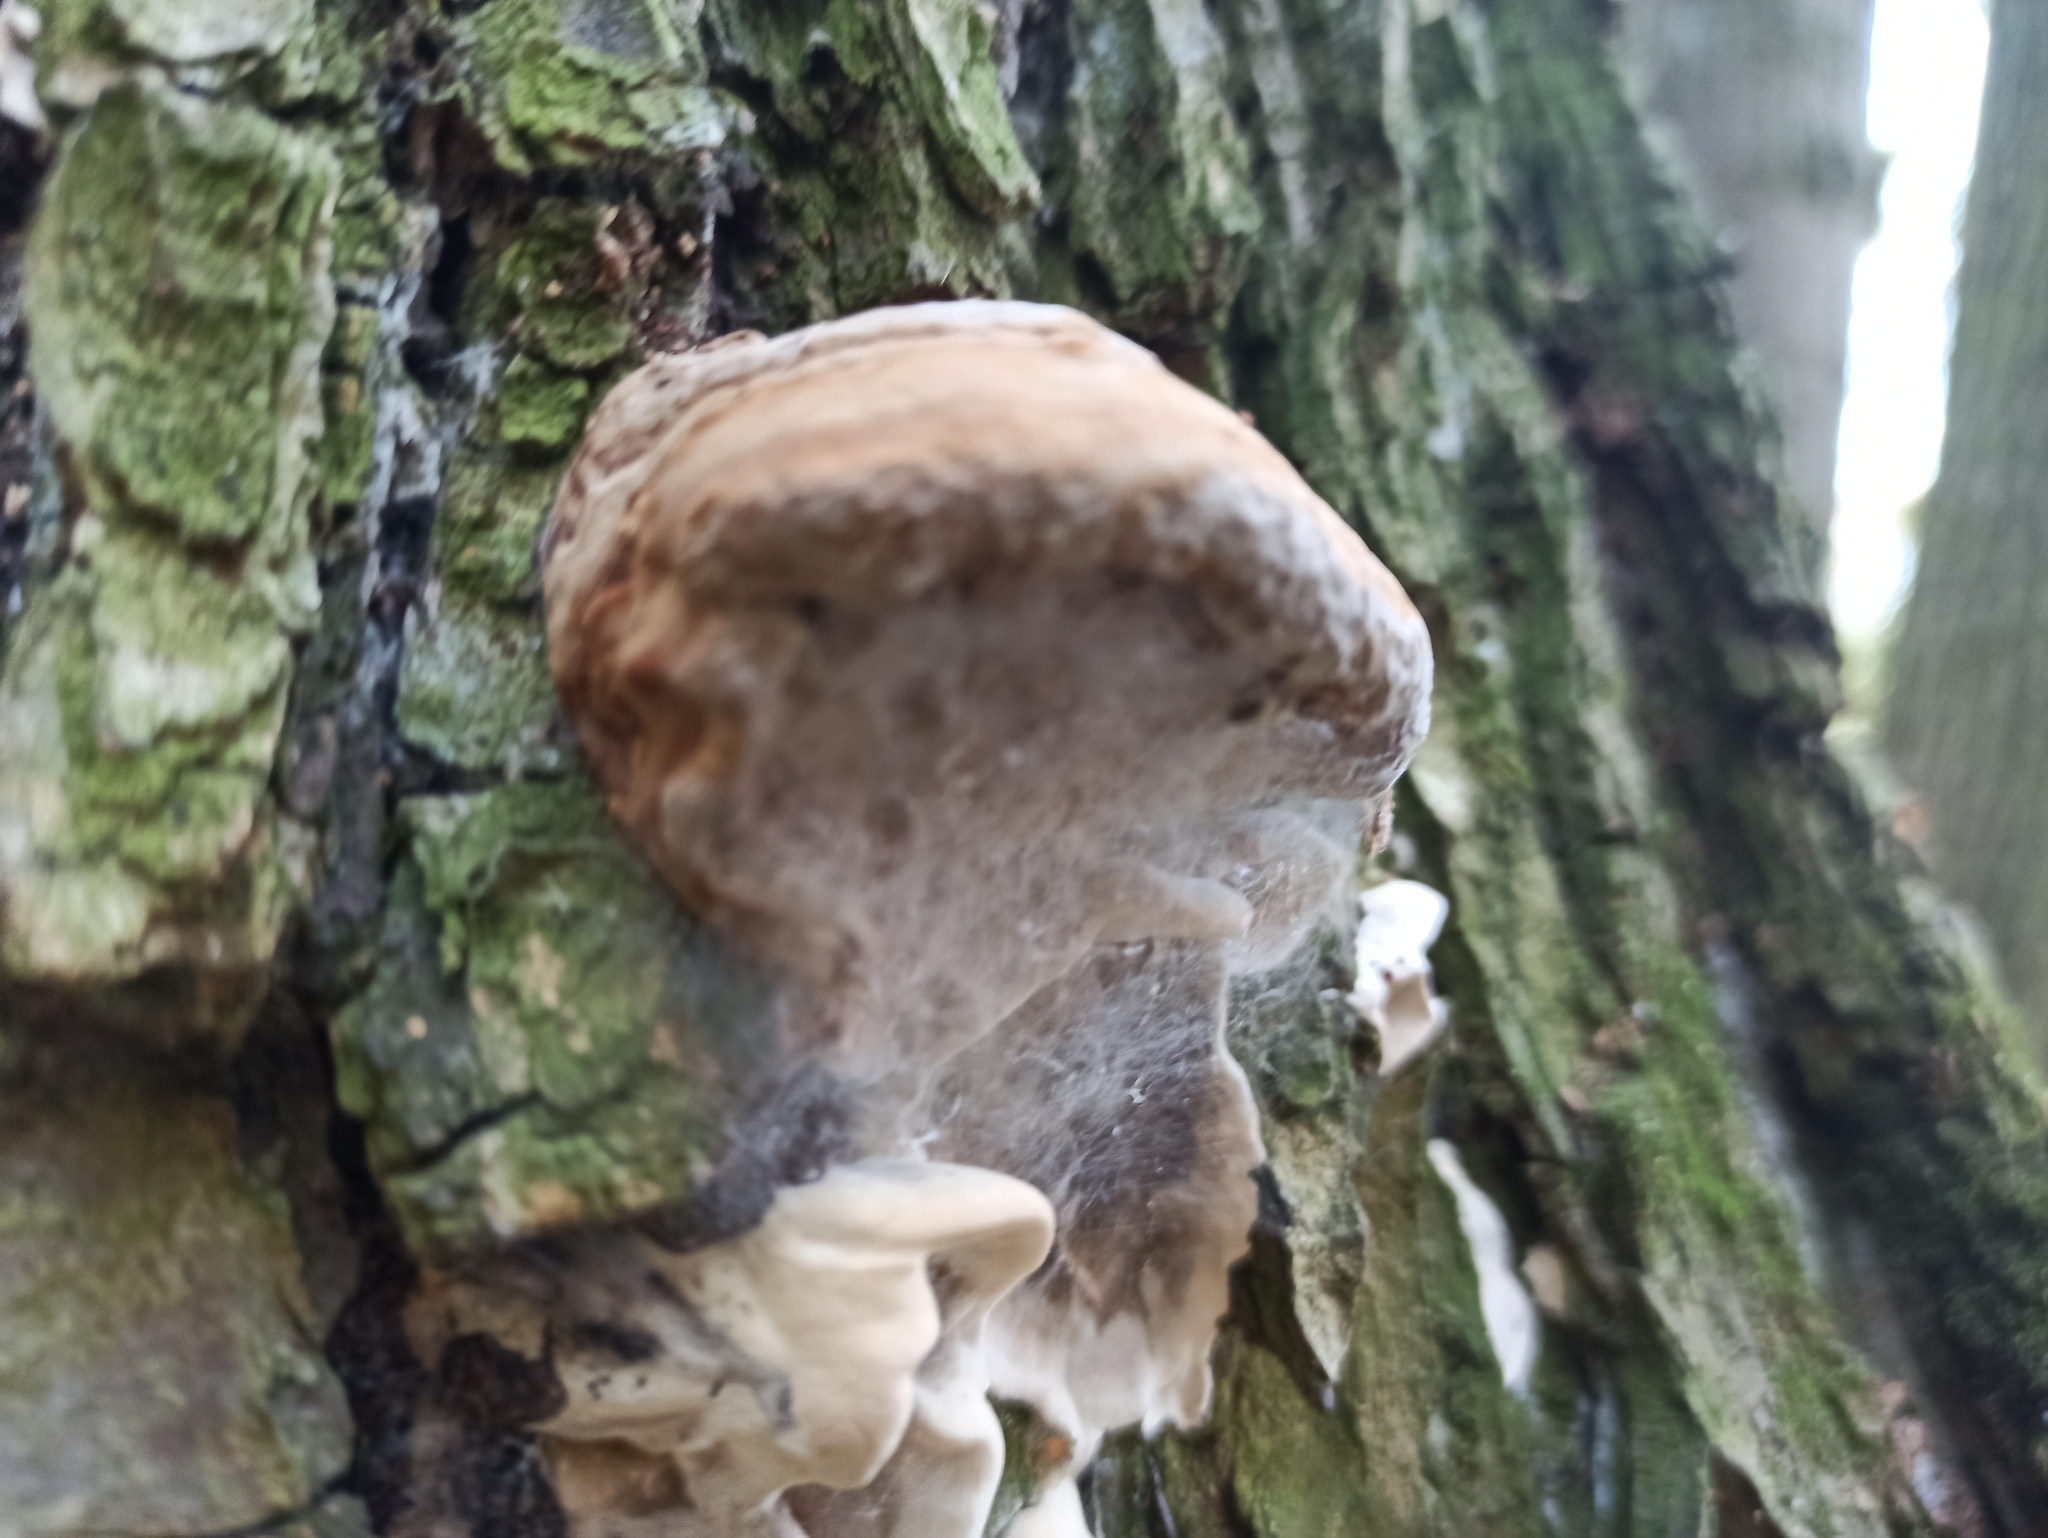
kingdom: Fungi
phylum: Basidiomycota
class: Agaricomycetes
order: Polyporales
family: Polyporaceae
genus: Fomes
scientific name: Fomes fomentarius
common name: Hoof fungus
